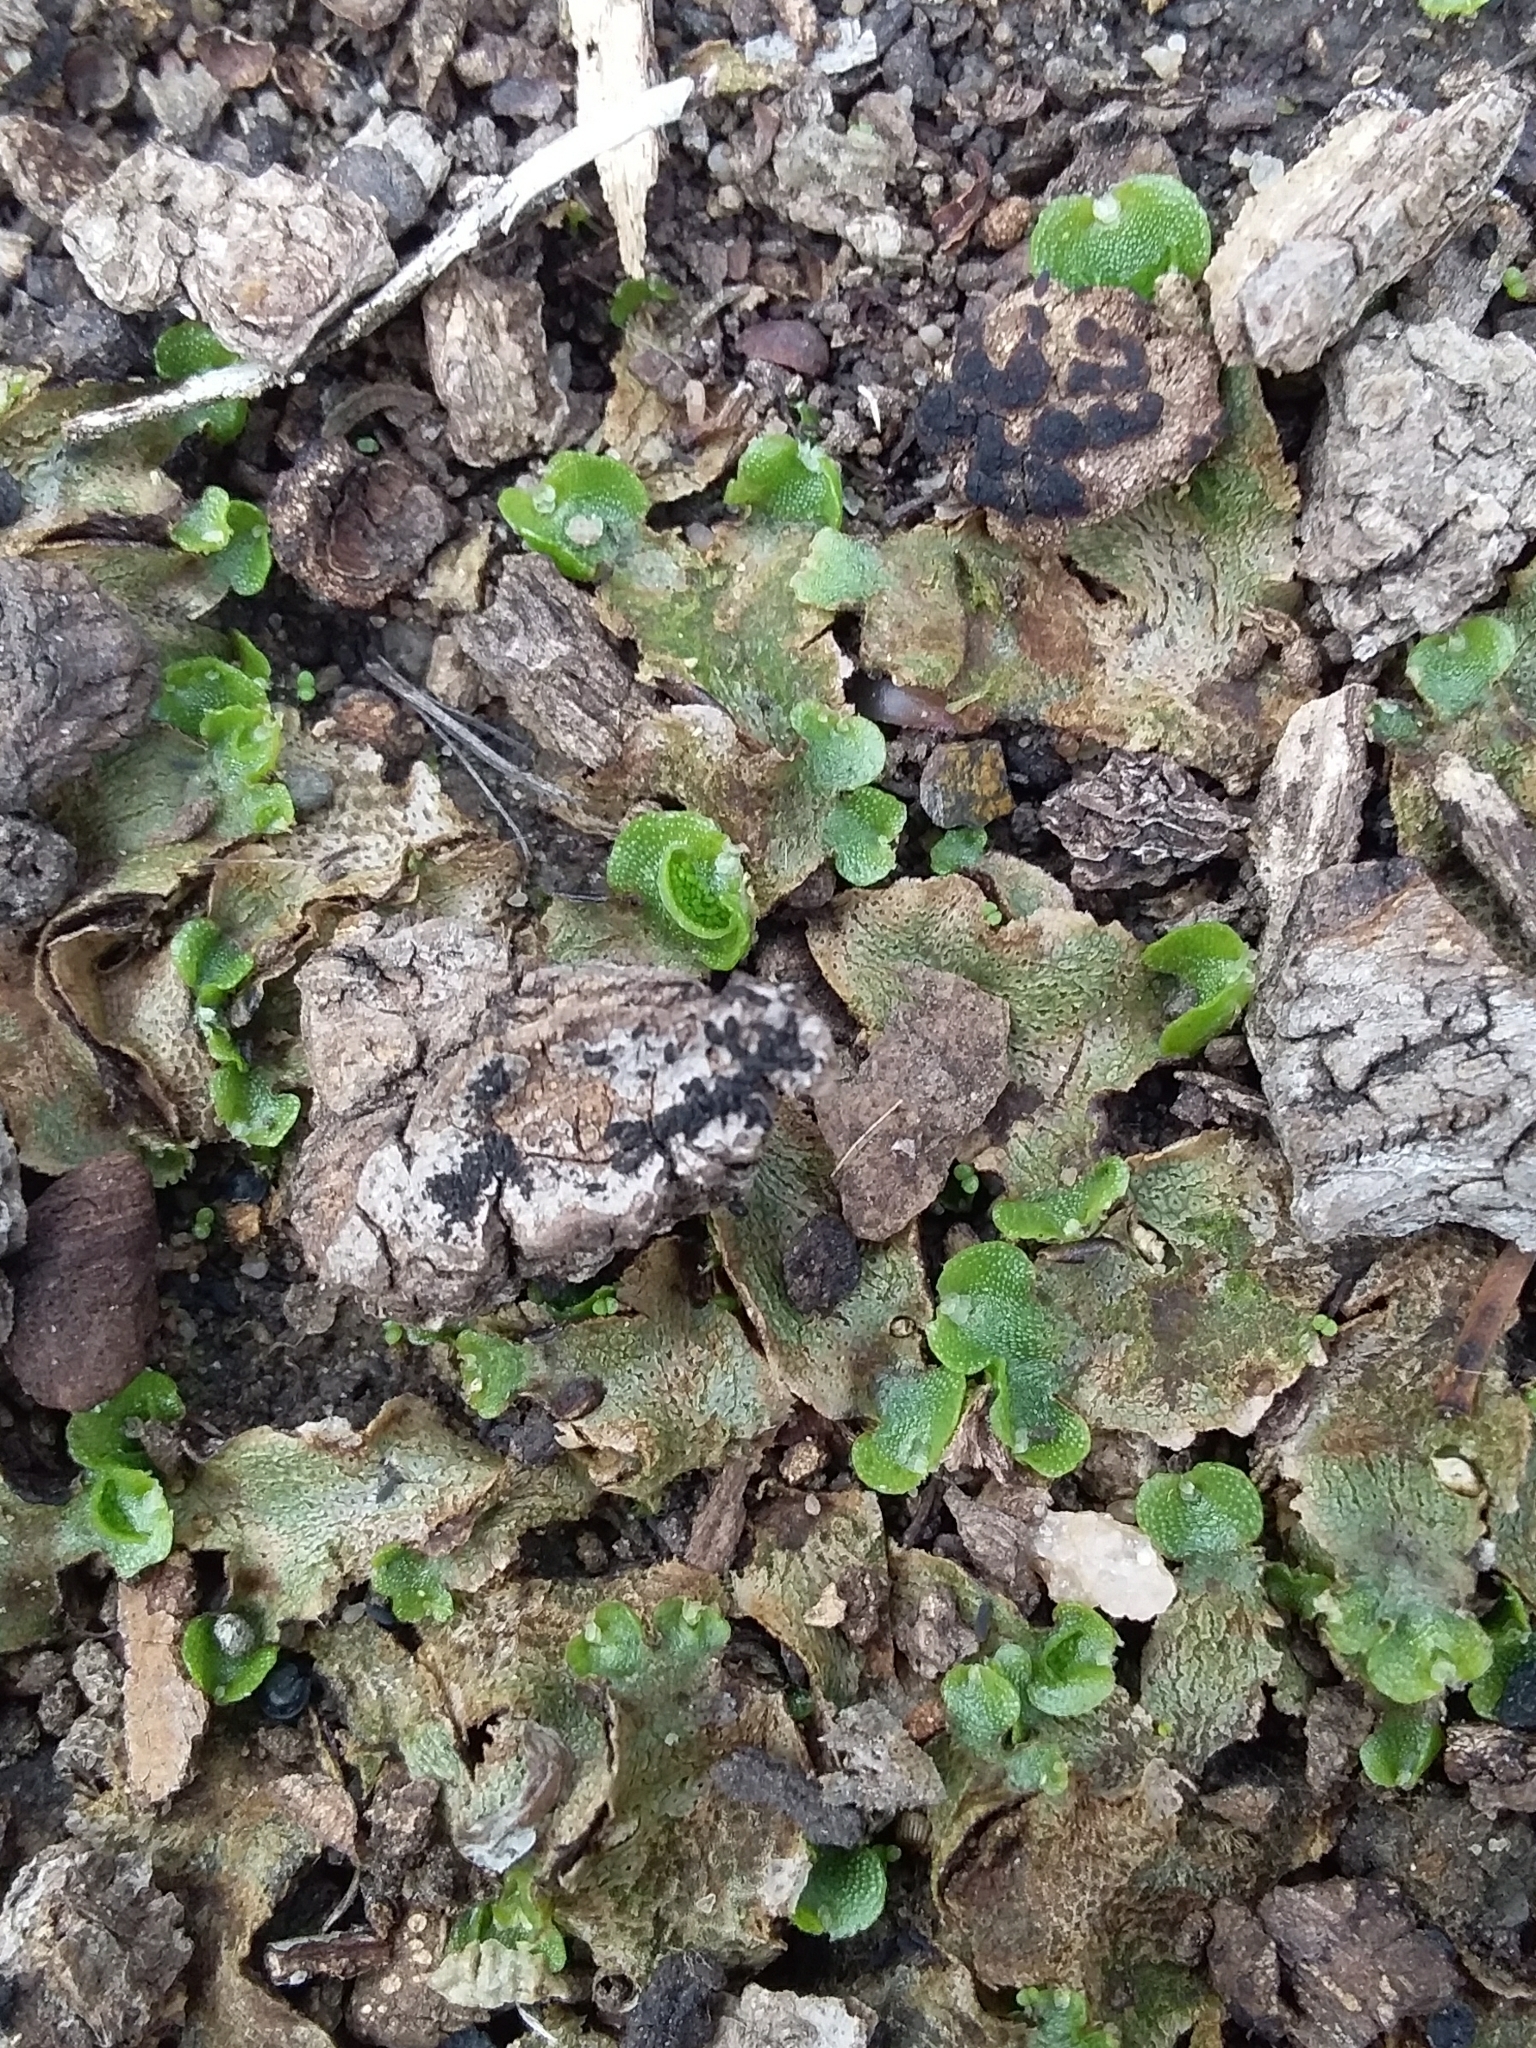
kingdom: Plantae
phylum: Marchantiophyta
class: Marchantiopsida
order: Lunulariales
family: Lunulariaceae
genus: Lunularia
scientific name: Lunularia cruciata
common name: Crescent-cup liverwort
